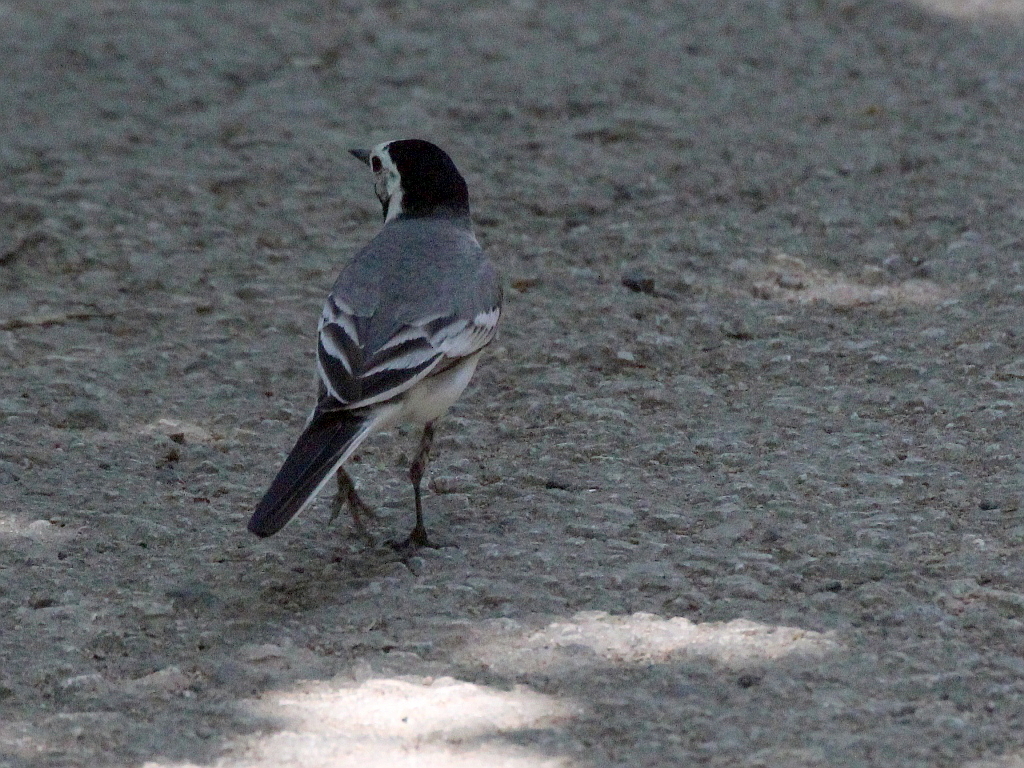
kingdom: Animalia
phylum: Chordata
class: Aves
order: Passeriformes
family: Motacillidae
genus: Motacilla
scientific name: Motacilla alba
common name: White wagtail
